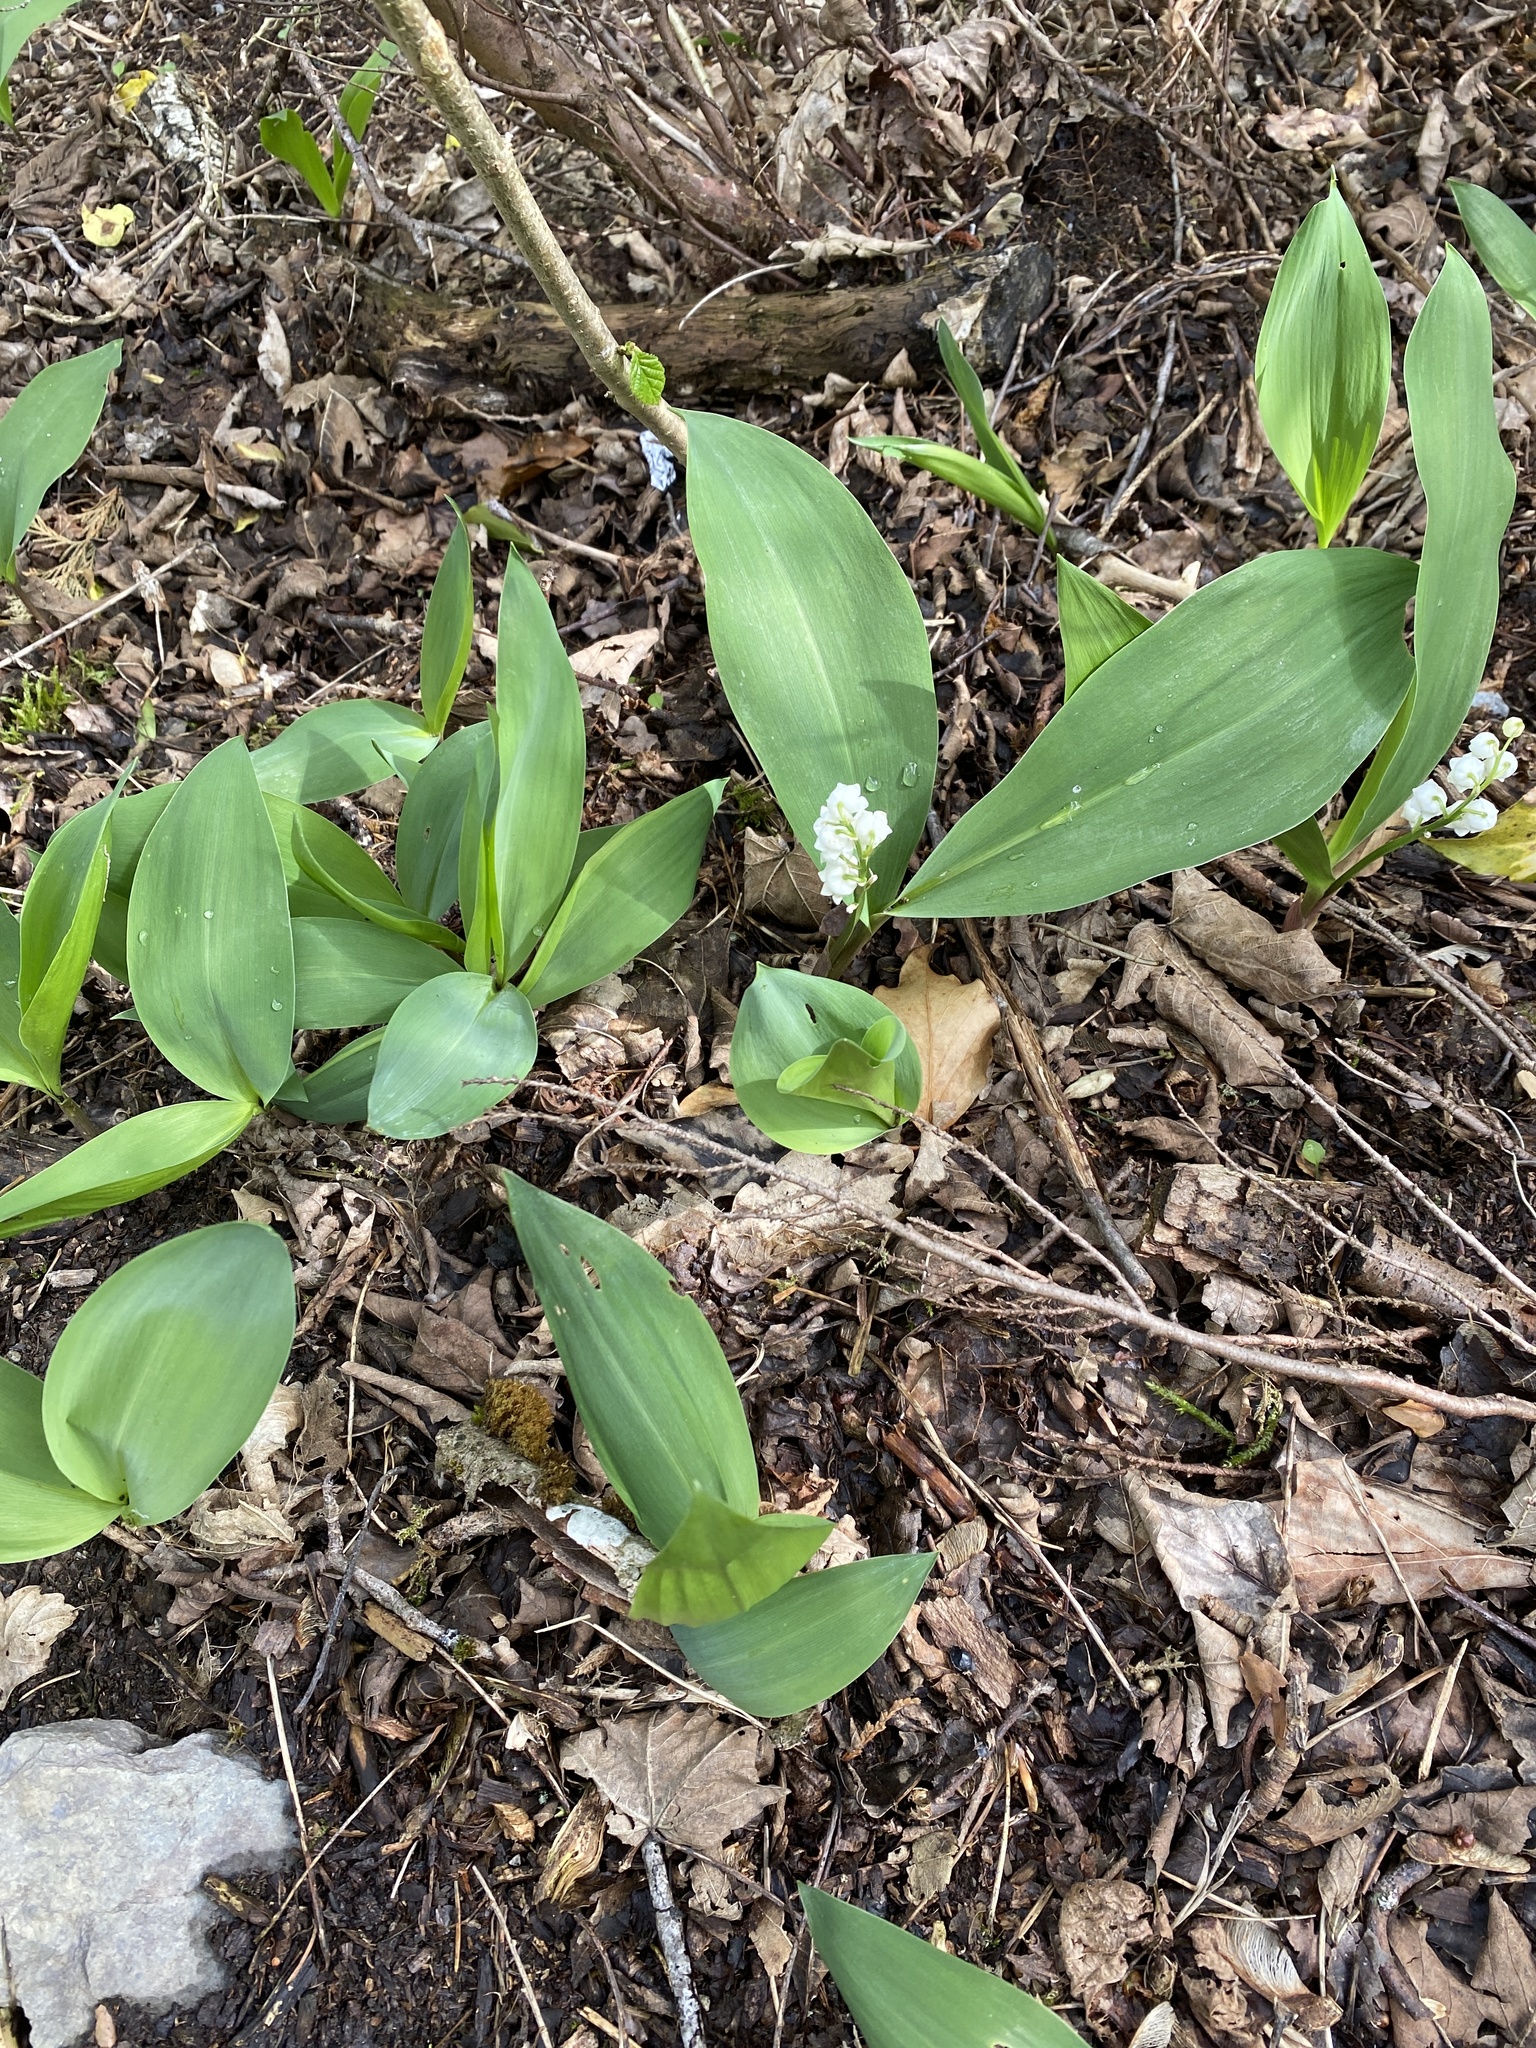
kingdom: Plantae
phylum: Tracheophyta
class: Liliopsida
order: Asparagales
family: Asparagaceae
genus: Convallaria
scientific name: Convallaria majalis
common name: Lily-of-the-valley
